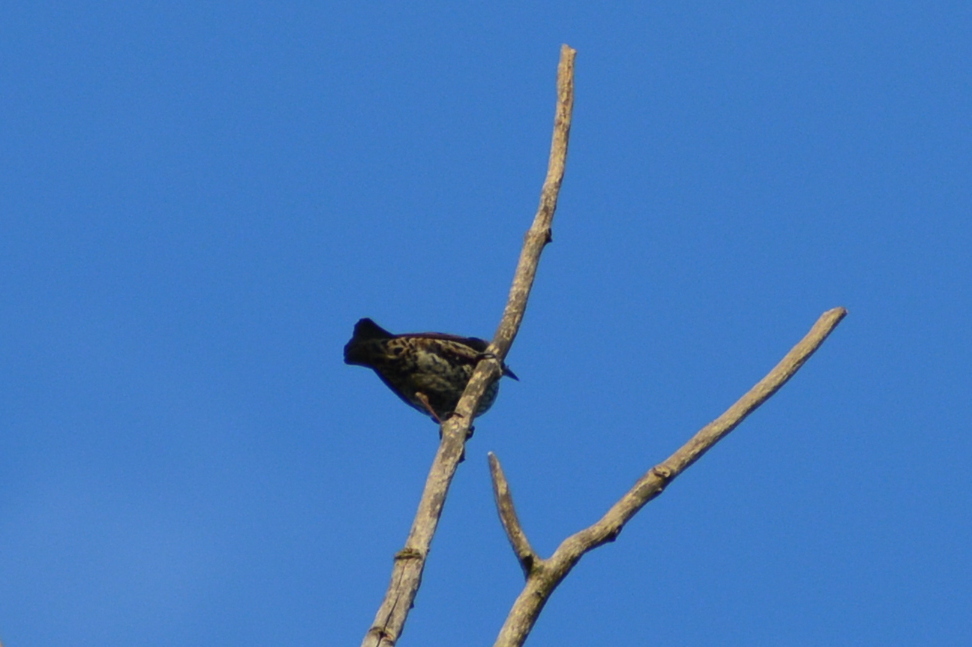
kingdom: Animalia
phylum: Chordata
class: Aves
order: Passeriformes
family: Sturnidae
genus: Sturnus
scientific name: Sturnus vulgaris
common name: Common starling
